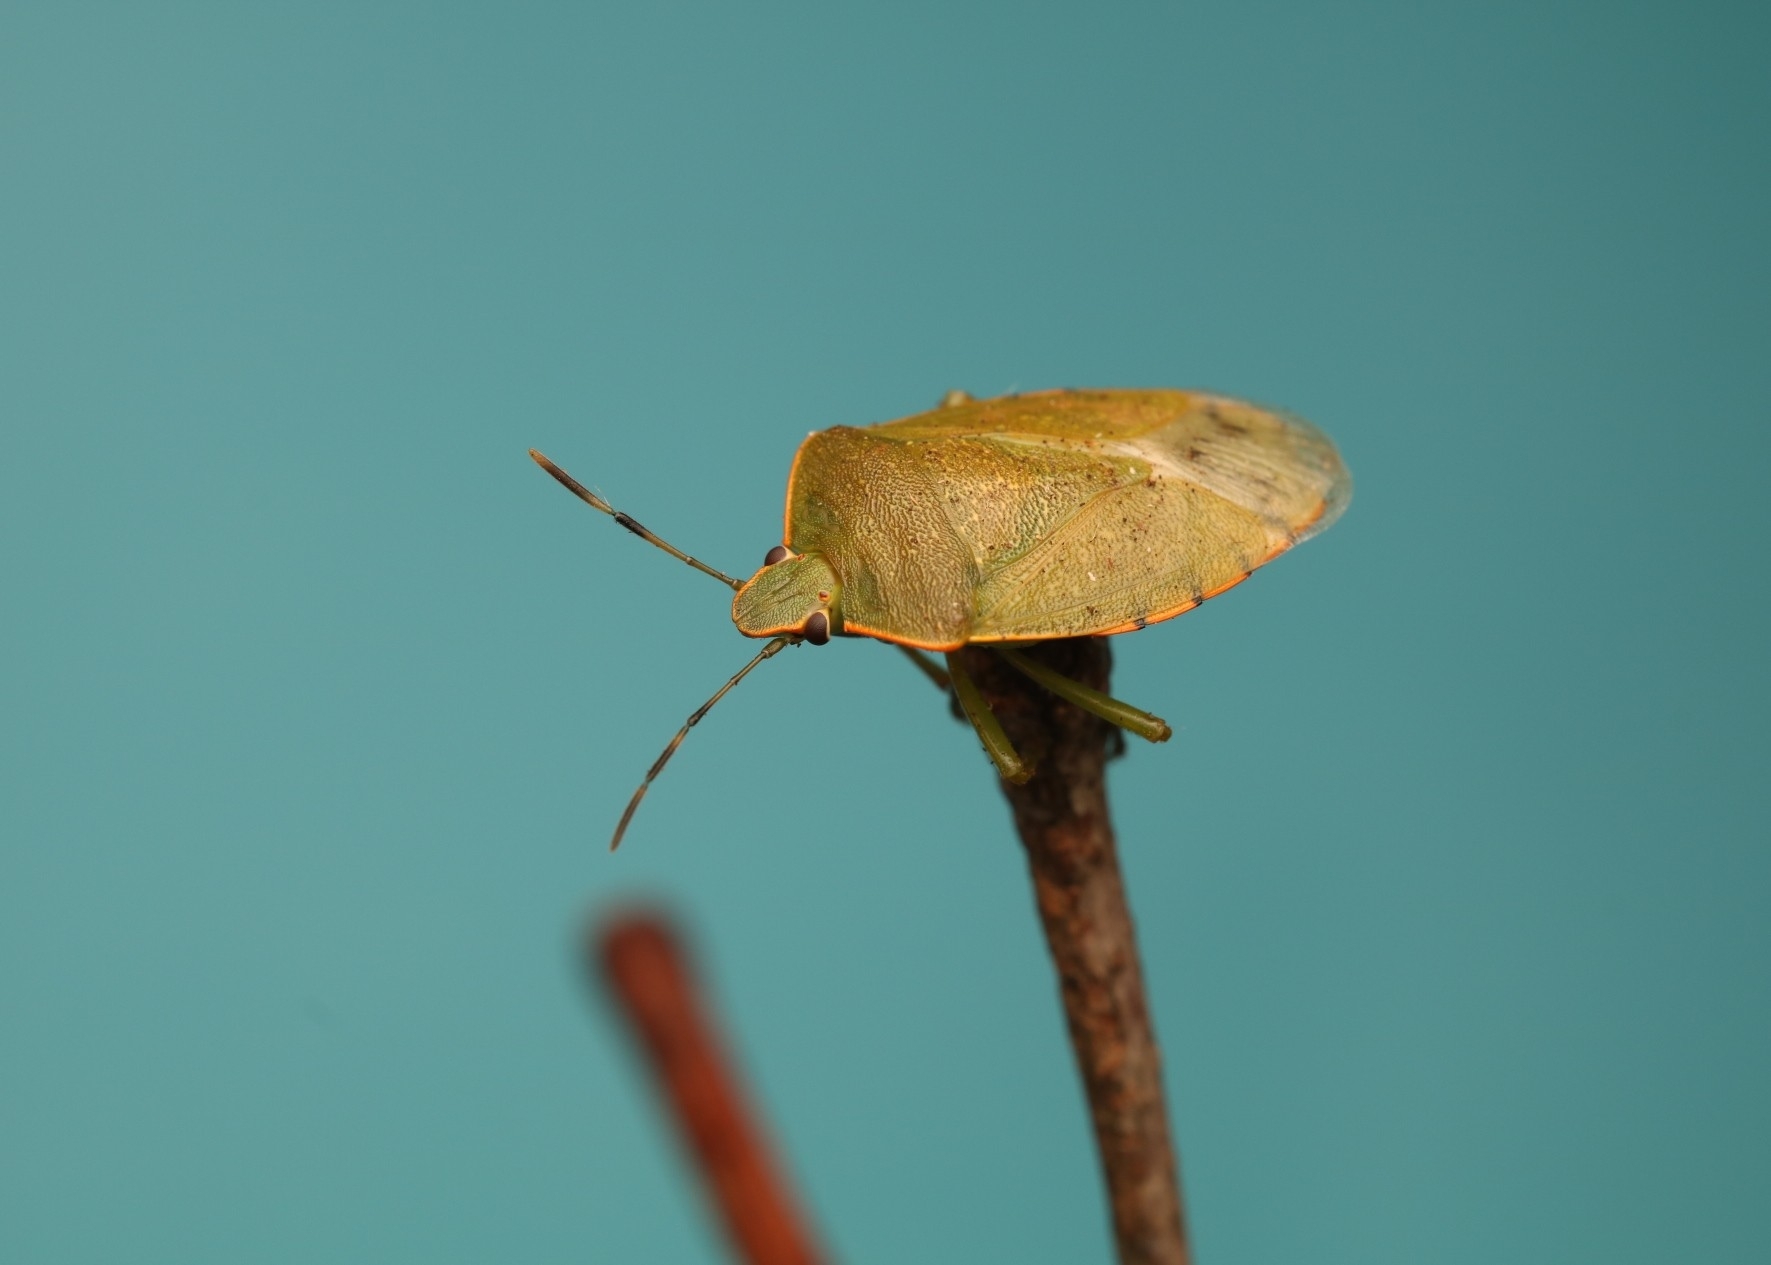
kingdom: Animalia
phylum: Arthropoda
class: Insecta
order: Hemiptera
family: Pentatomidae
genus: Chinavia
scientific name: Chinavia hilaris
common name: Green stink bug
